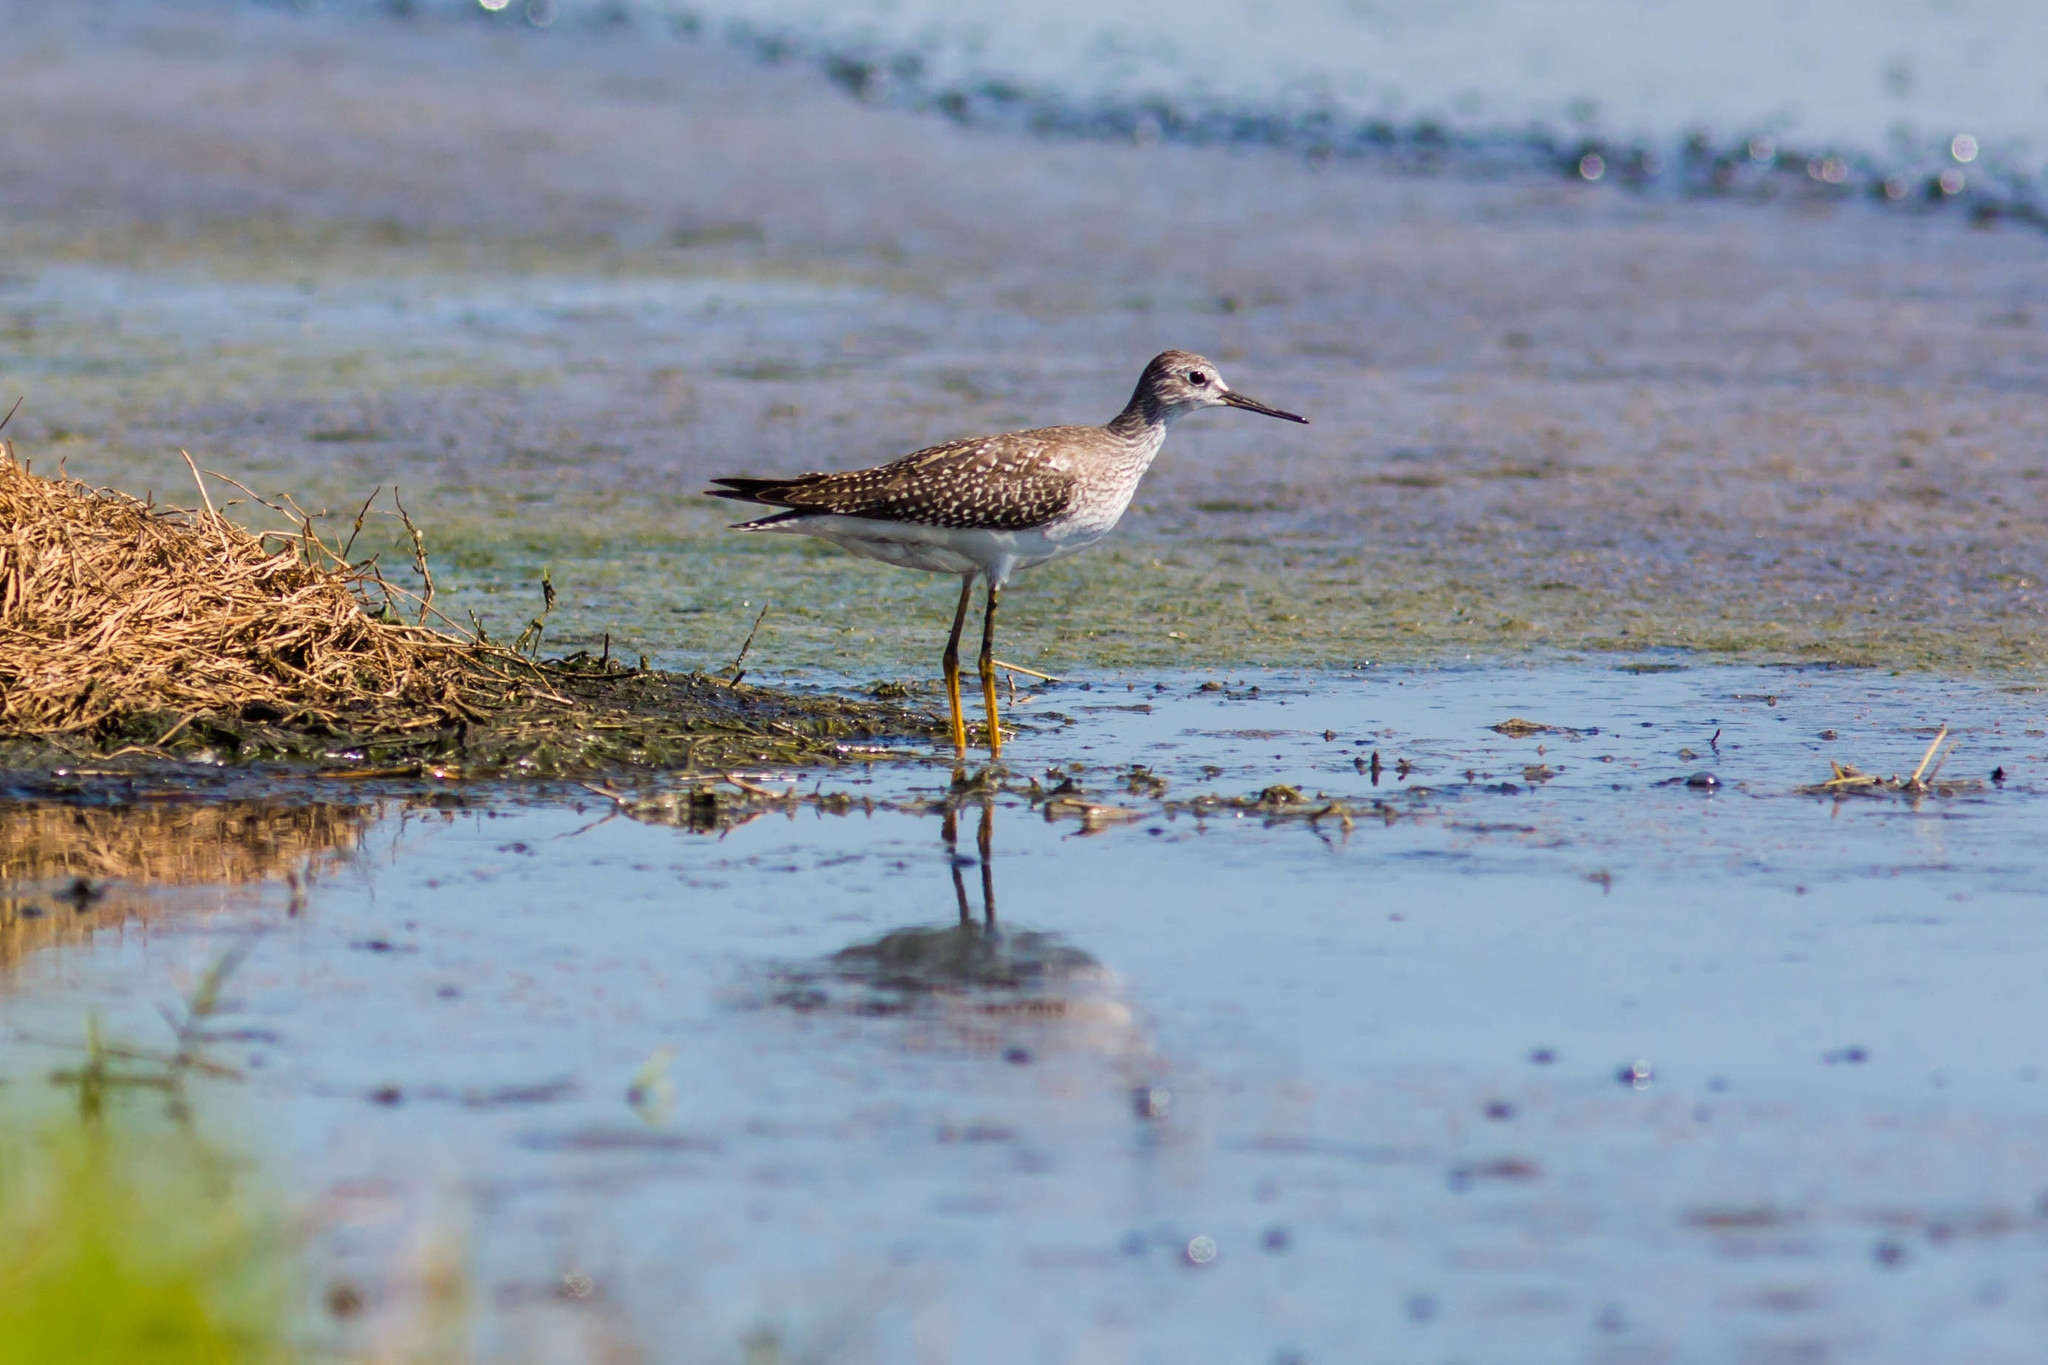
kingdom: Animalia
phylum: Chordata
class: Aves
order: Charadriiformes
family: Scolopacidae
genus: Tringa
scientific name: Tringa flavipes
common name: Lesser yellowlegs
